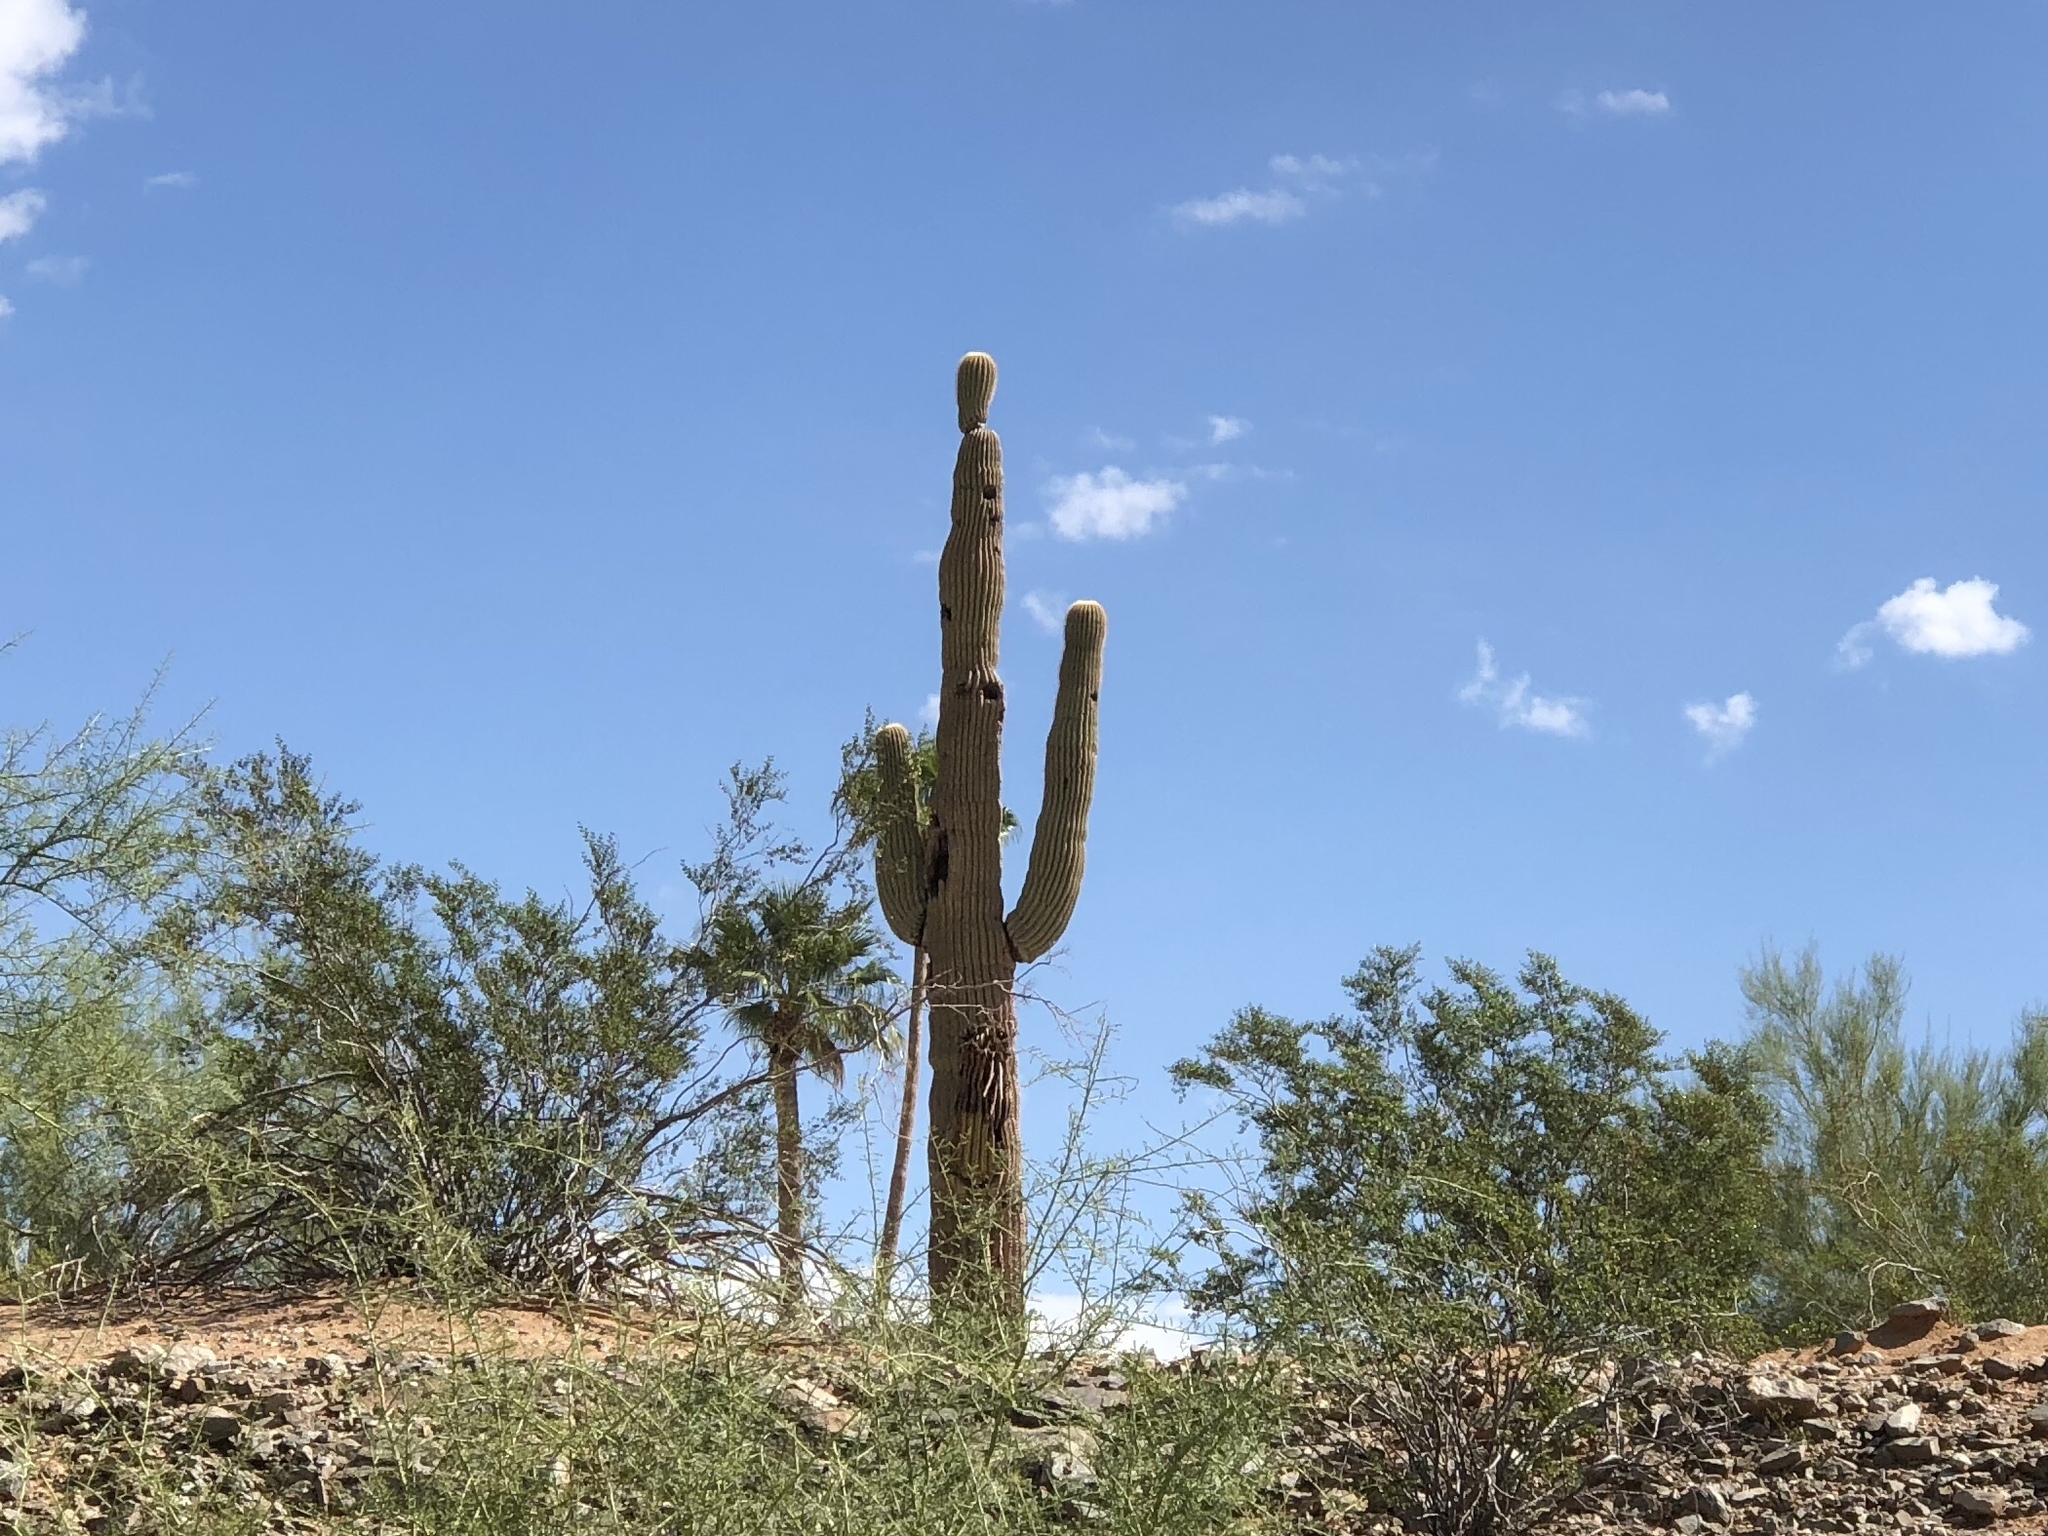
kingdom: Plantae
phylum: Tracheophyta
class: Magnoliopsida
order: Caryophyllales
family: Cactaceae
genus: Carnegiea
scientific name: Carnegiea gigantea
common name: Saguaro
